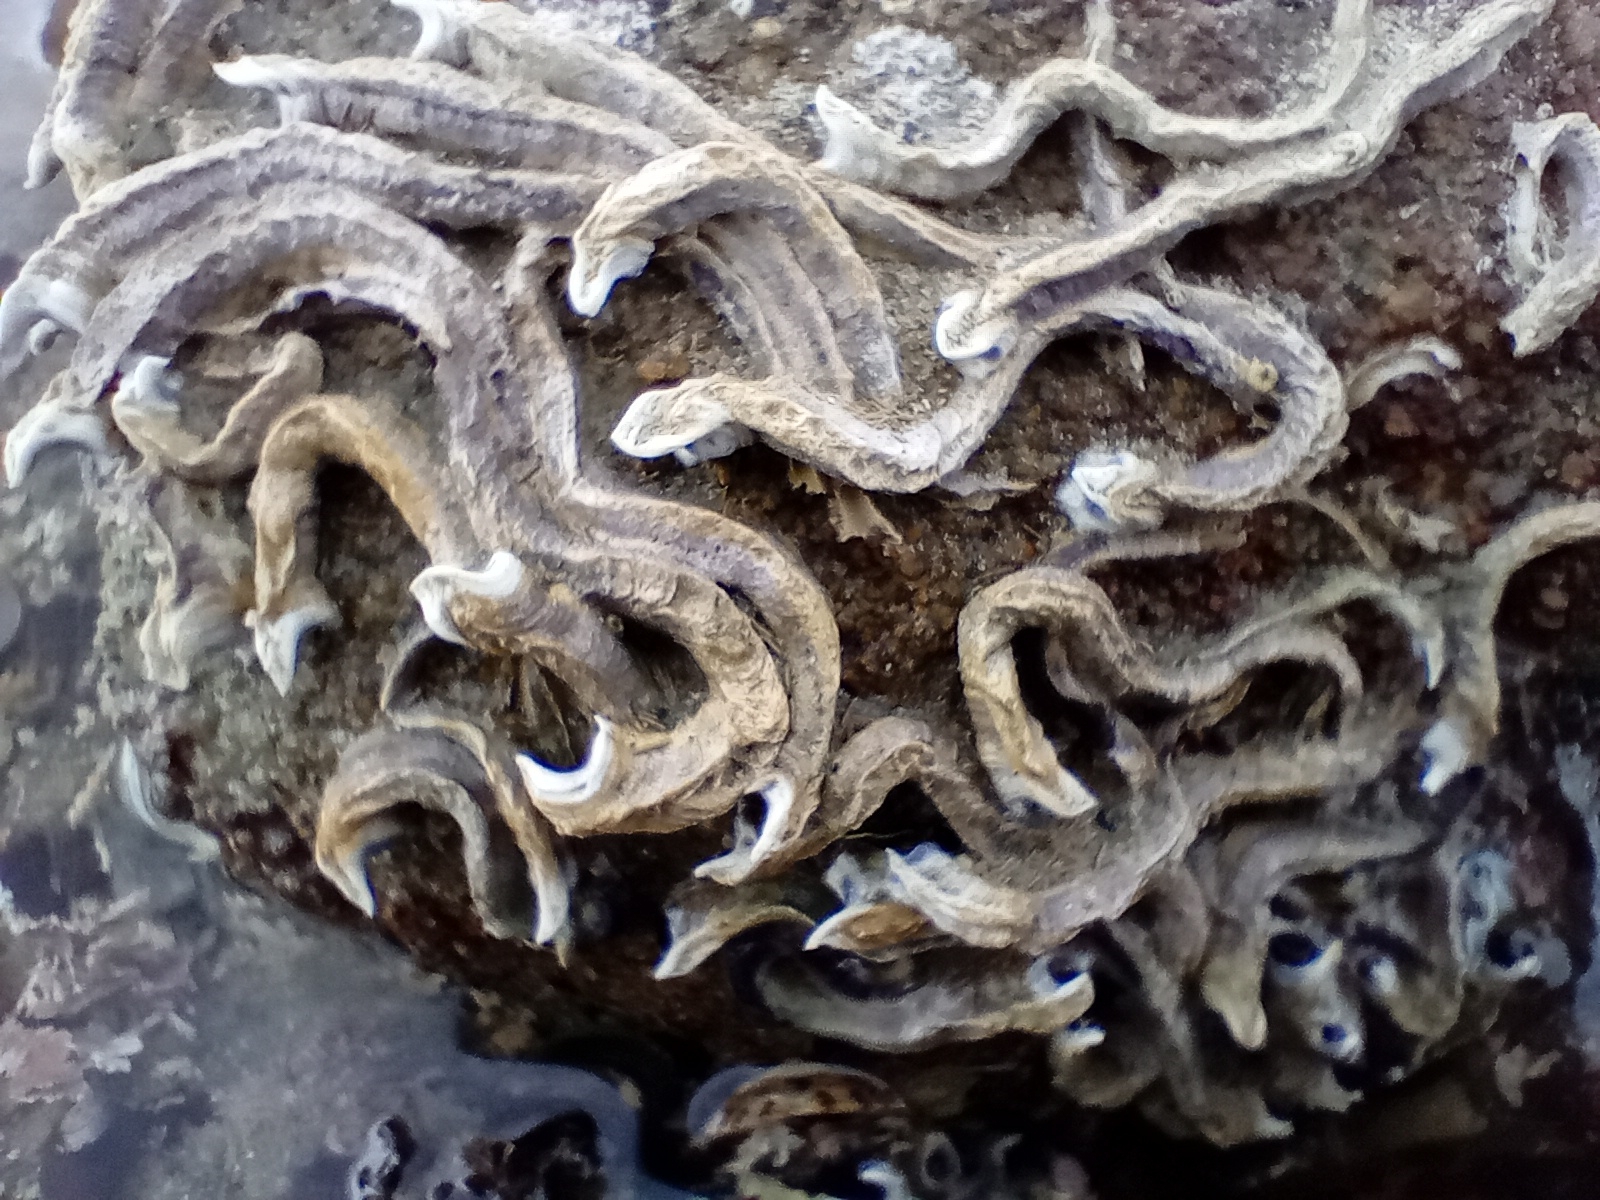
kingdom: Animalia
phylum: Annelida
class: Polychaeta
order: Sabellida
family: Serpulidae
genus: Spirobranchus
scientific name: Spirobranchus cariniferus
